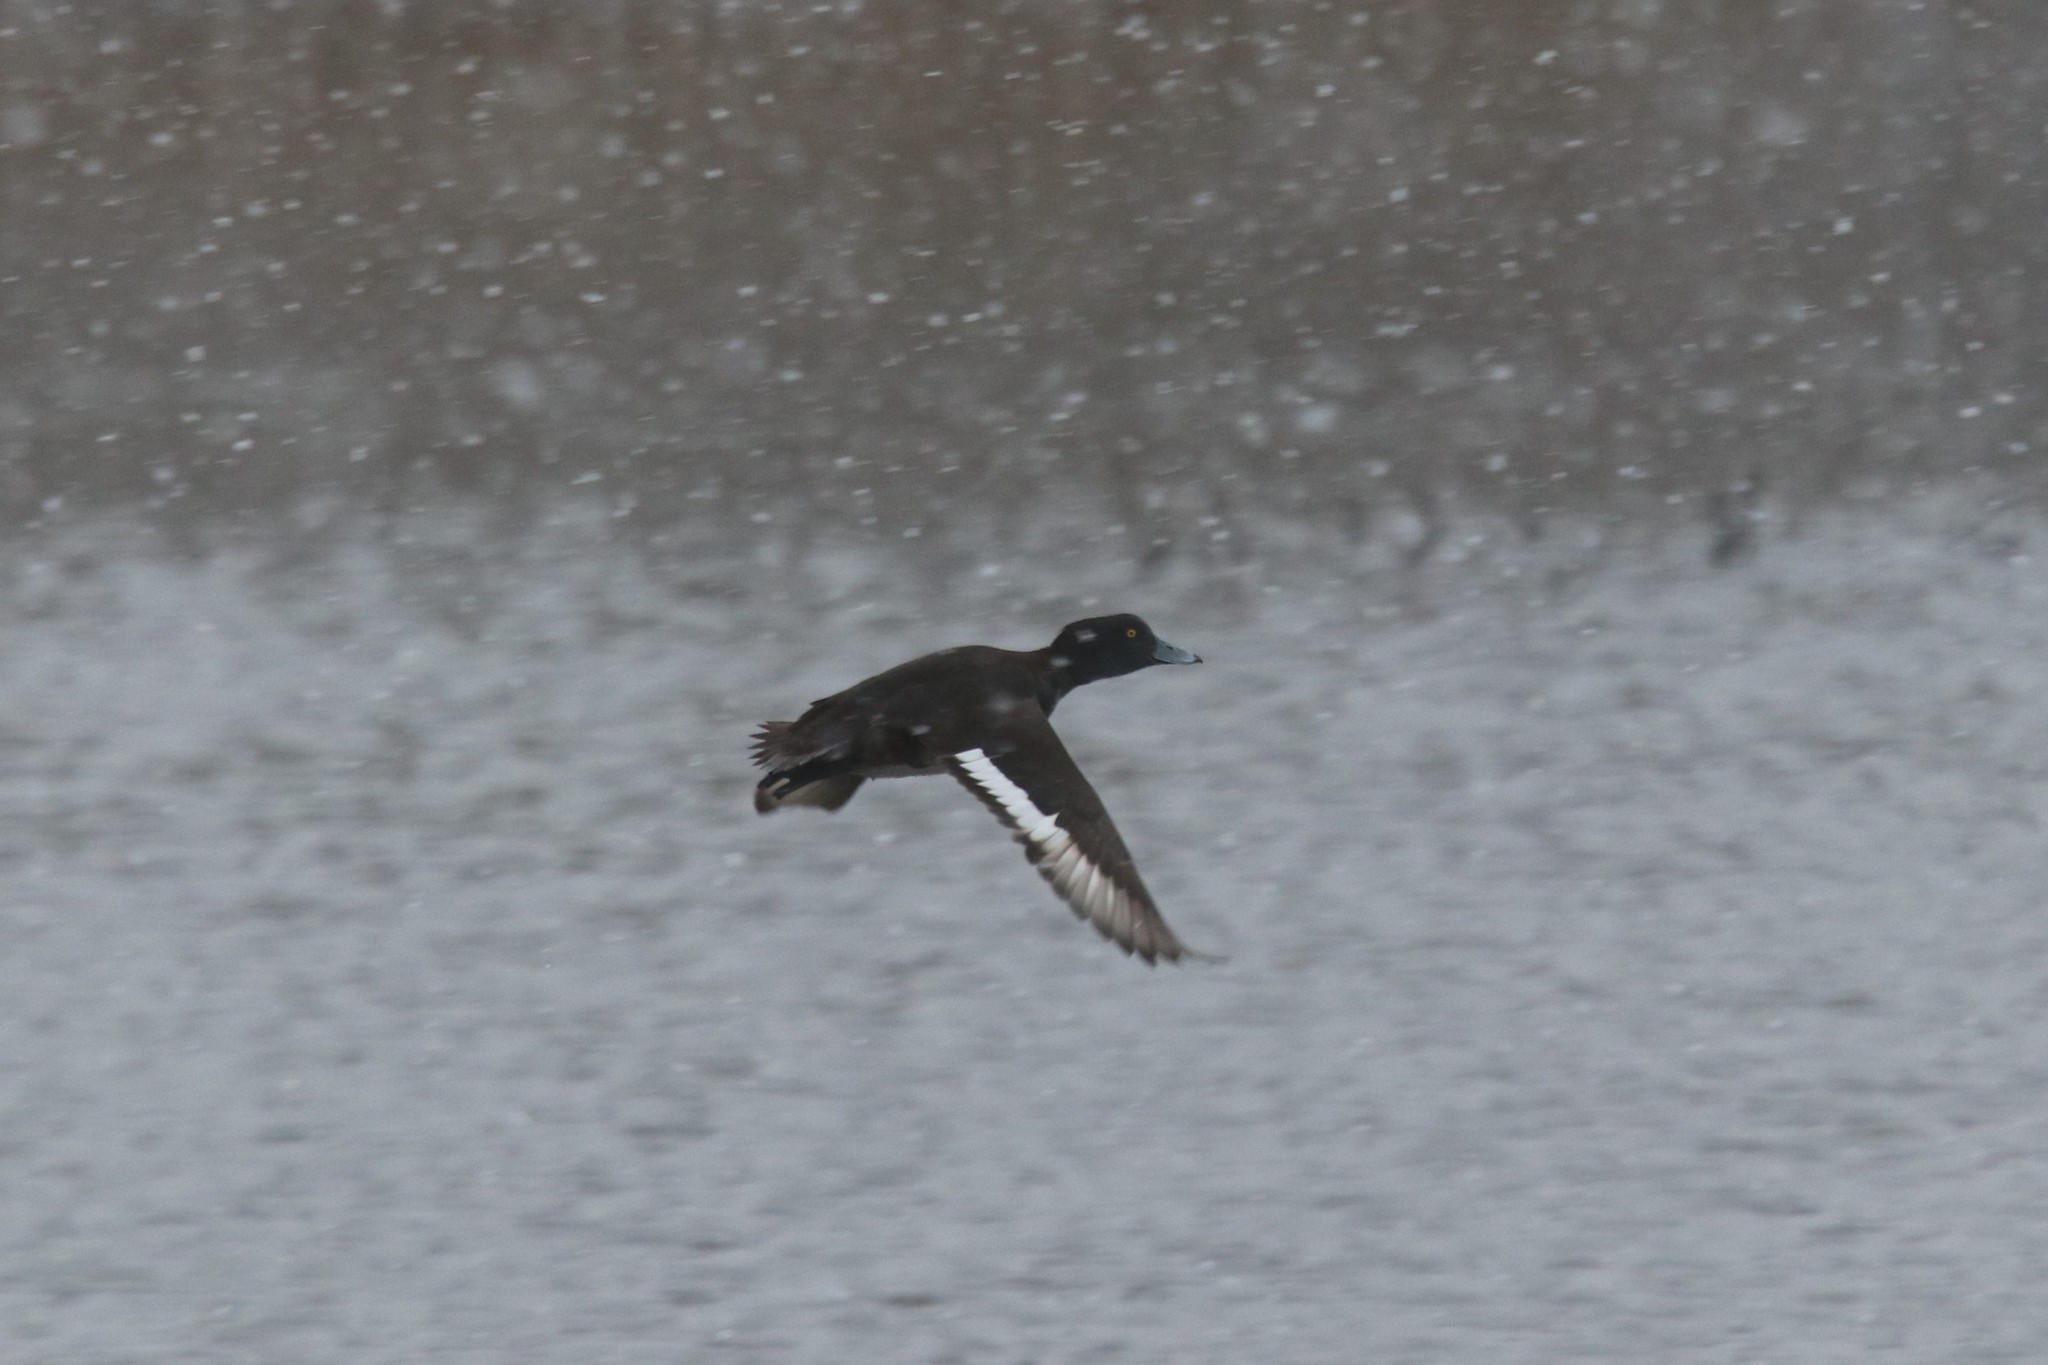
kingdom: Animalia
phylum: Chordata
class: Aves
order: Anseriformes
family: Anatidae
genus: Aythya
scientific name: Aythya fuligula
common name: Tufted duck
